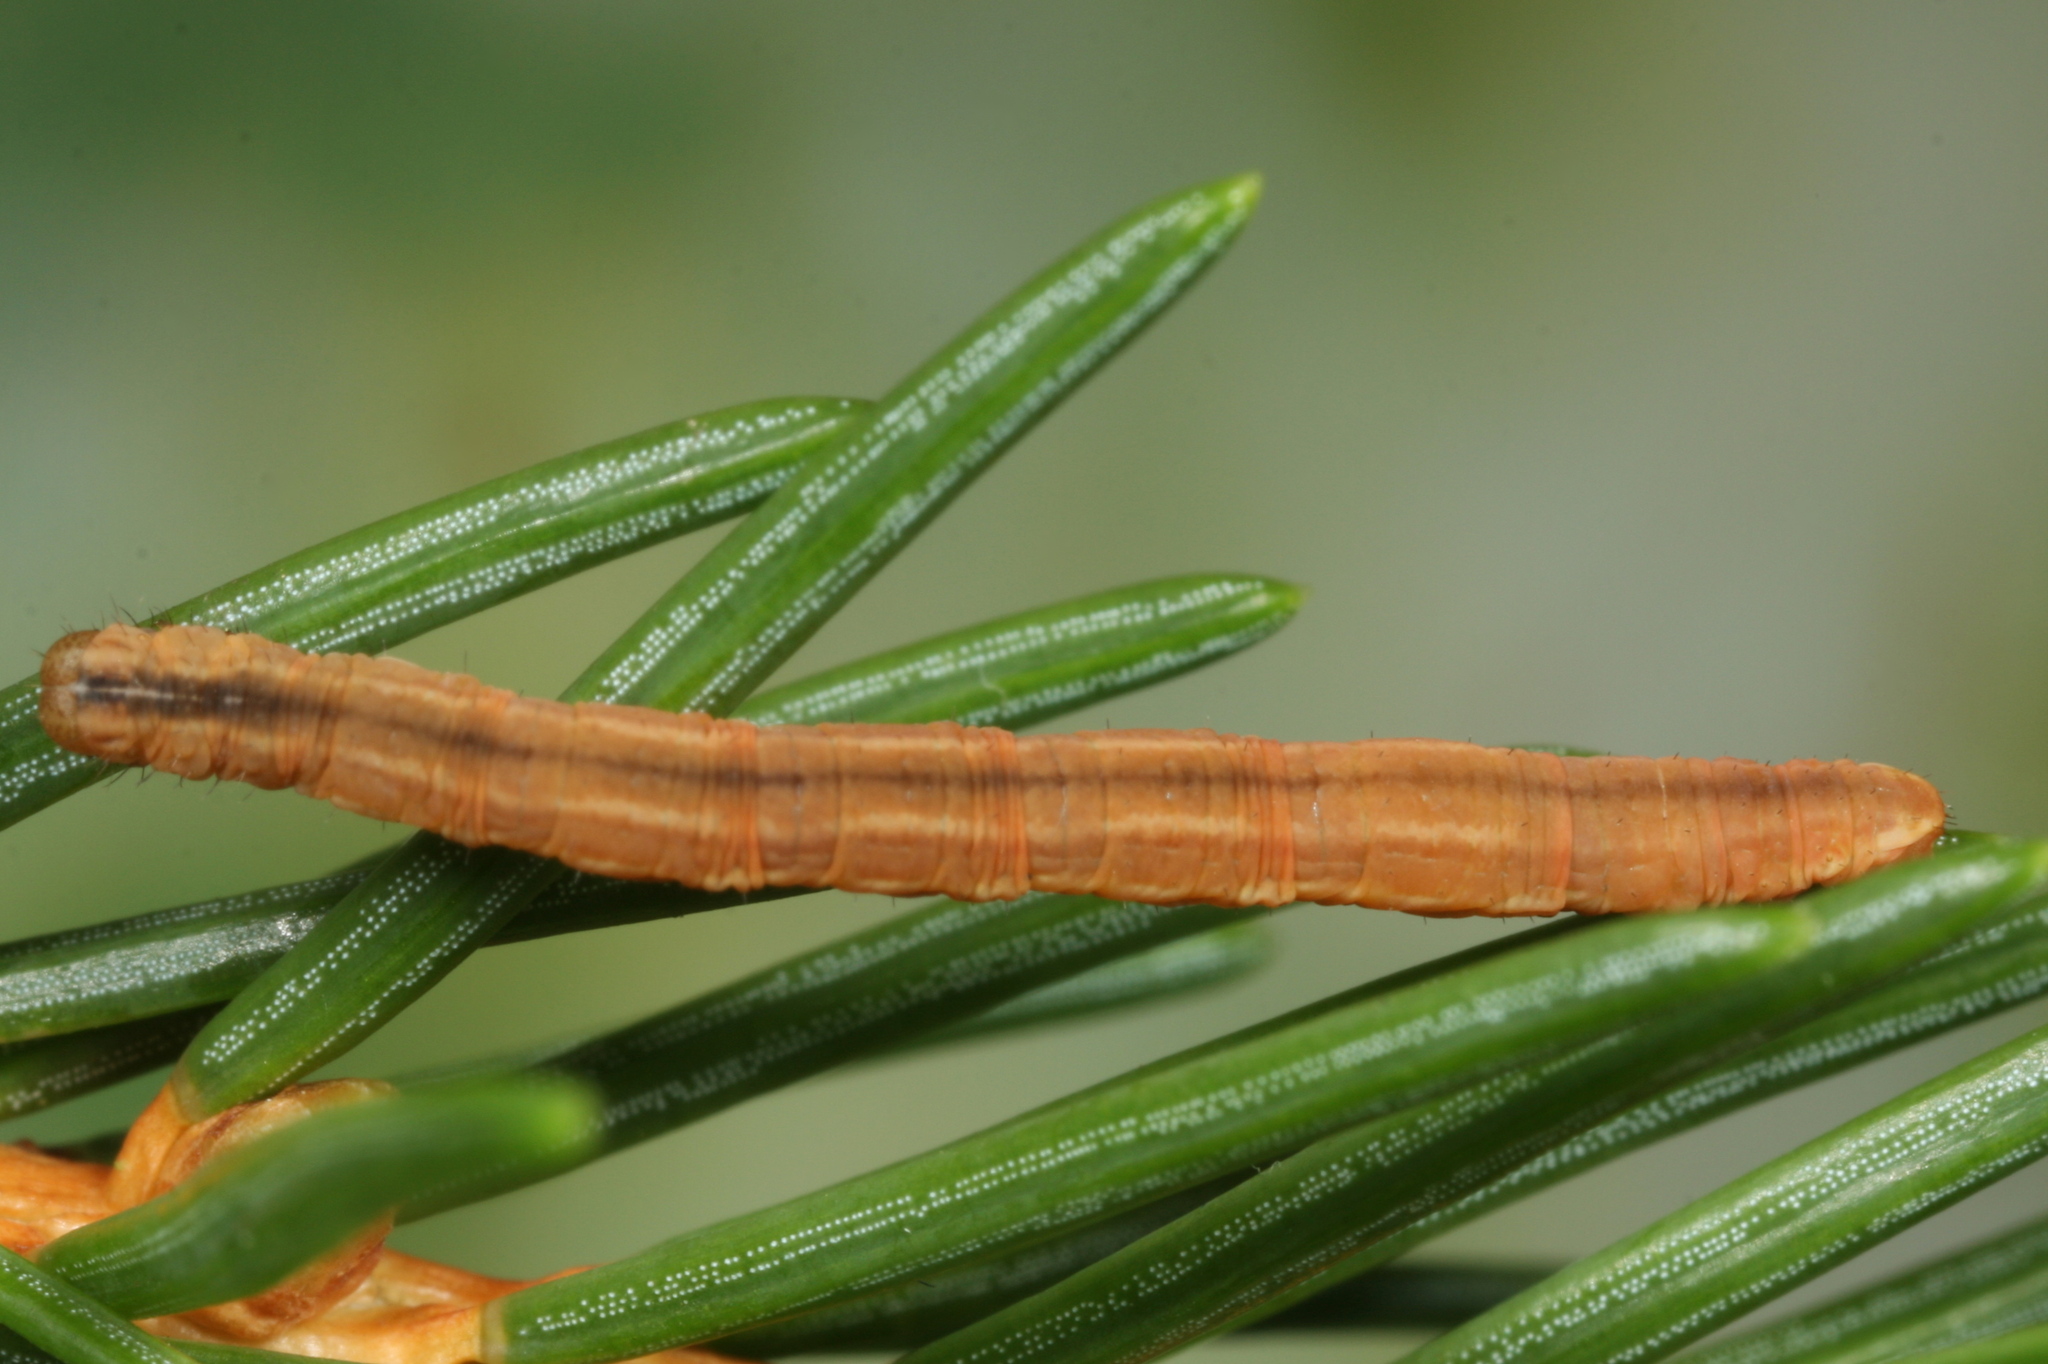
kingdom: Animalia
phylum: Arthropoda
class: Insecta
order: Lepidoptera
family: Geometridae
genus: Eupithecia
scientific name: Eupithecia tantillaria
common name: Dwarf pug
